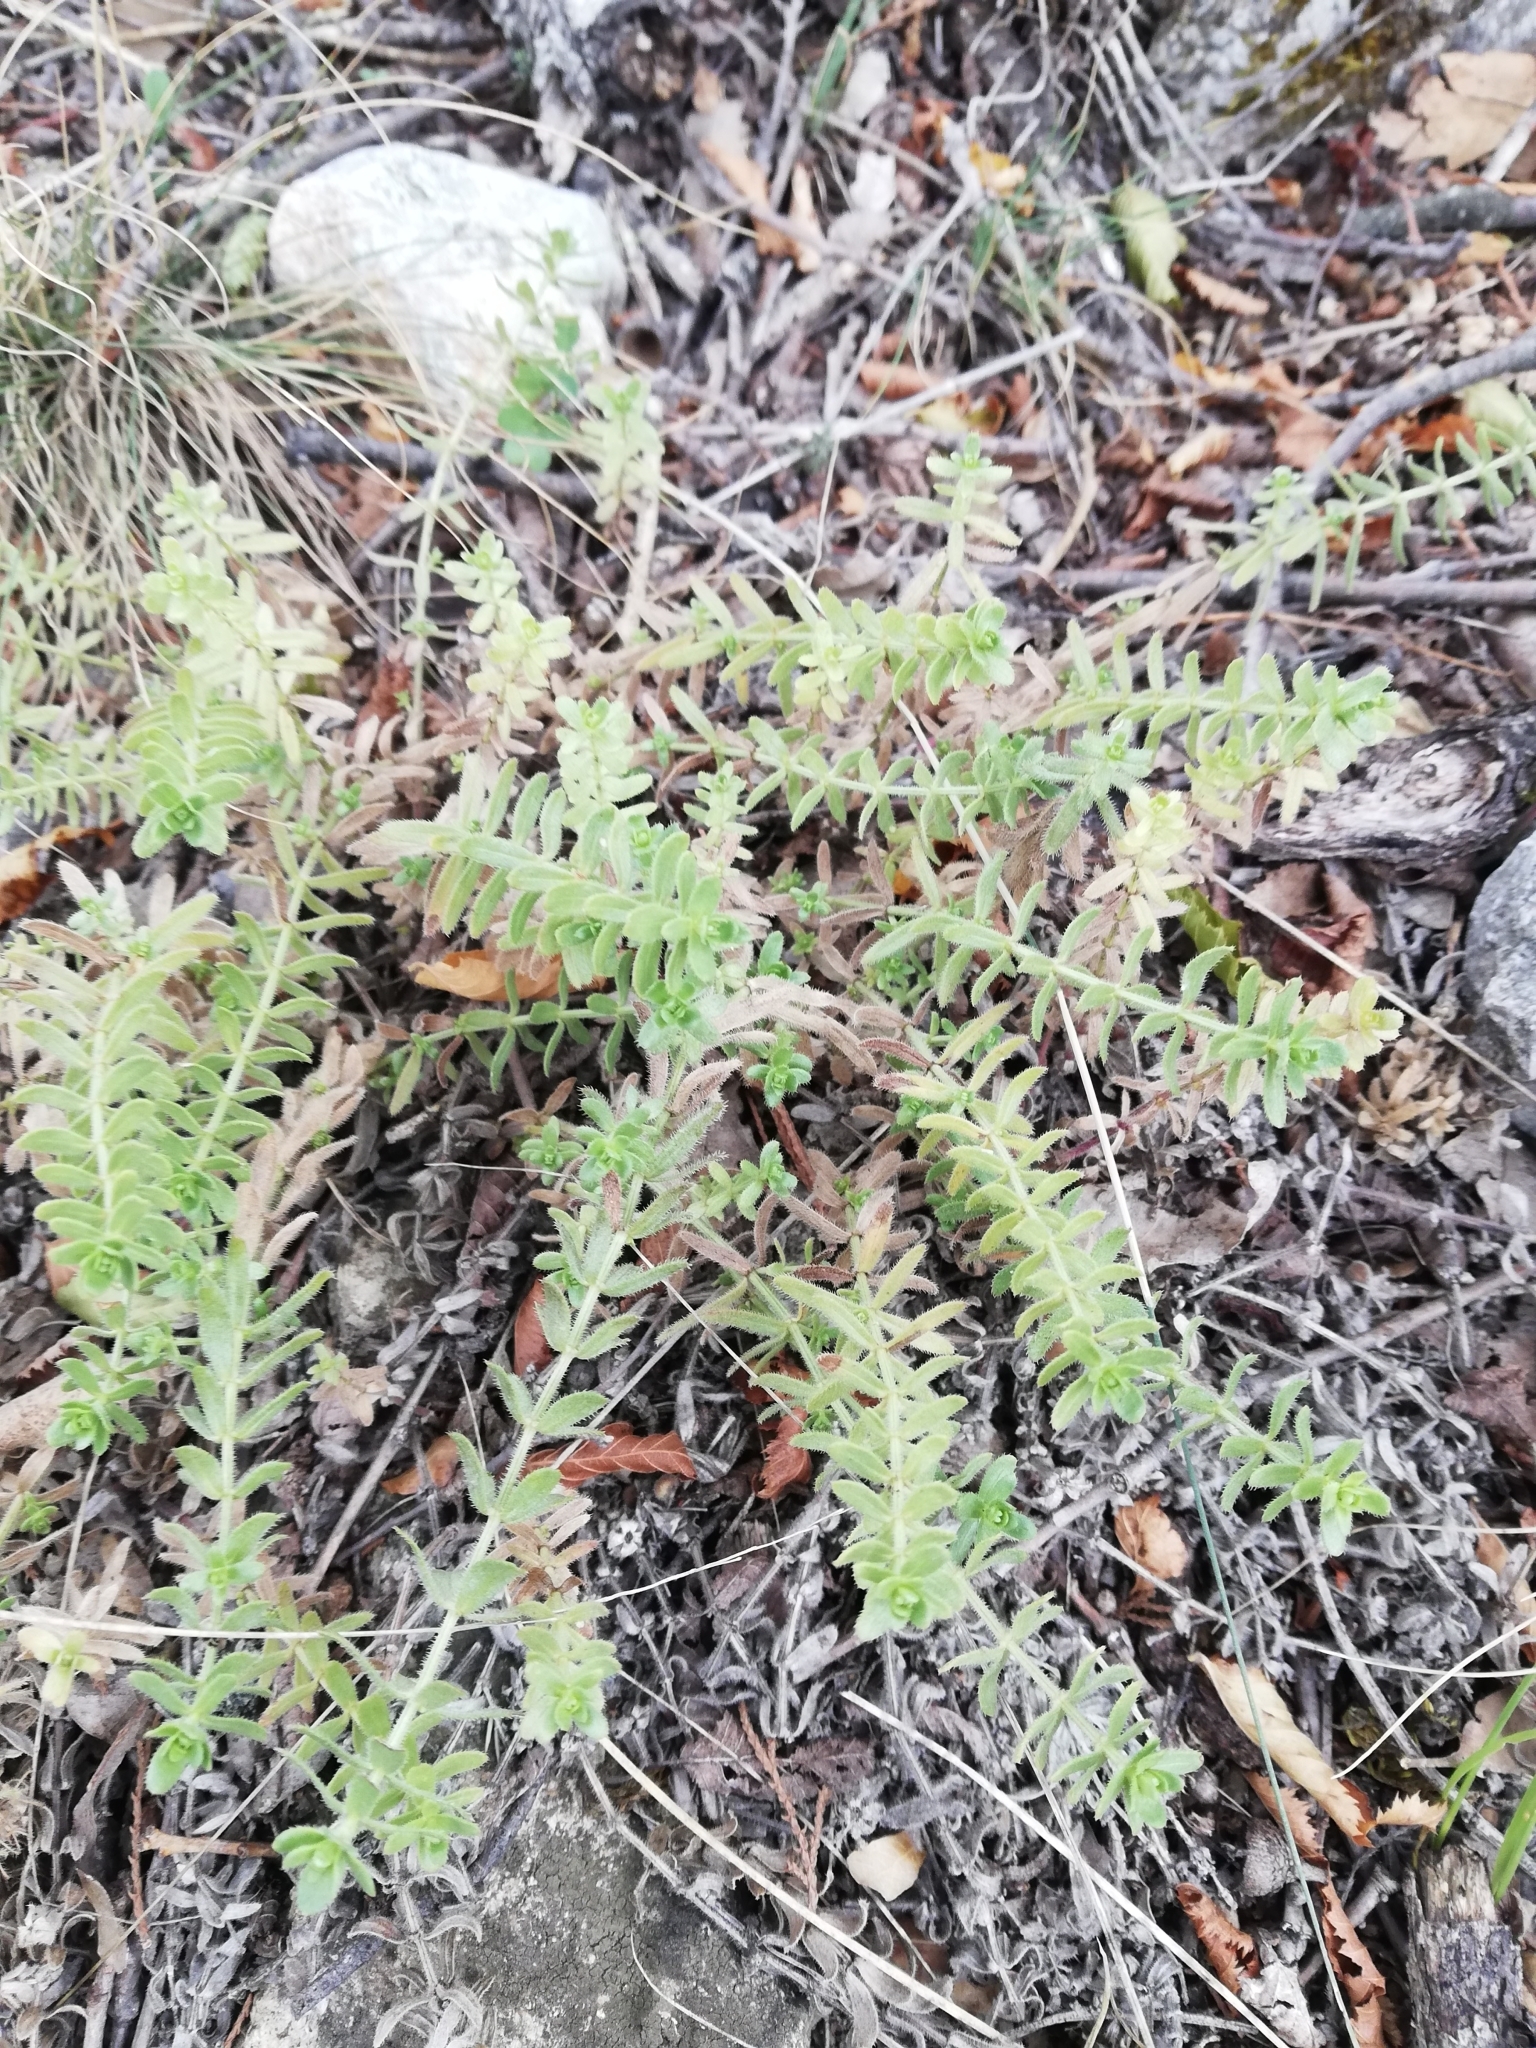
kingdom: Plantae
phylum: Tracheophyta
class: Magnoliopsida
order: Gentianales
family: Rubiaceae
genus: Cruciata
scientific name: Cruciata pedemontana
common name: Piedmont bedstraw
